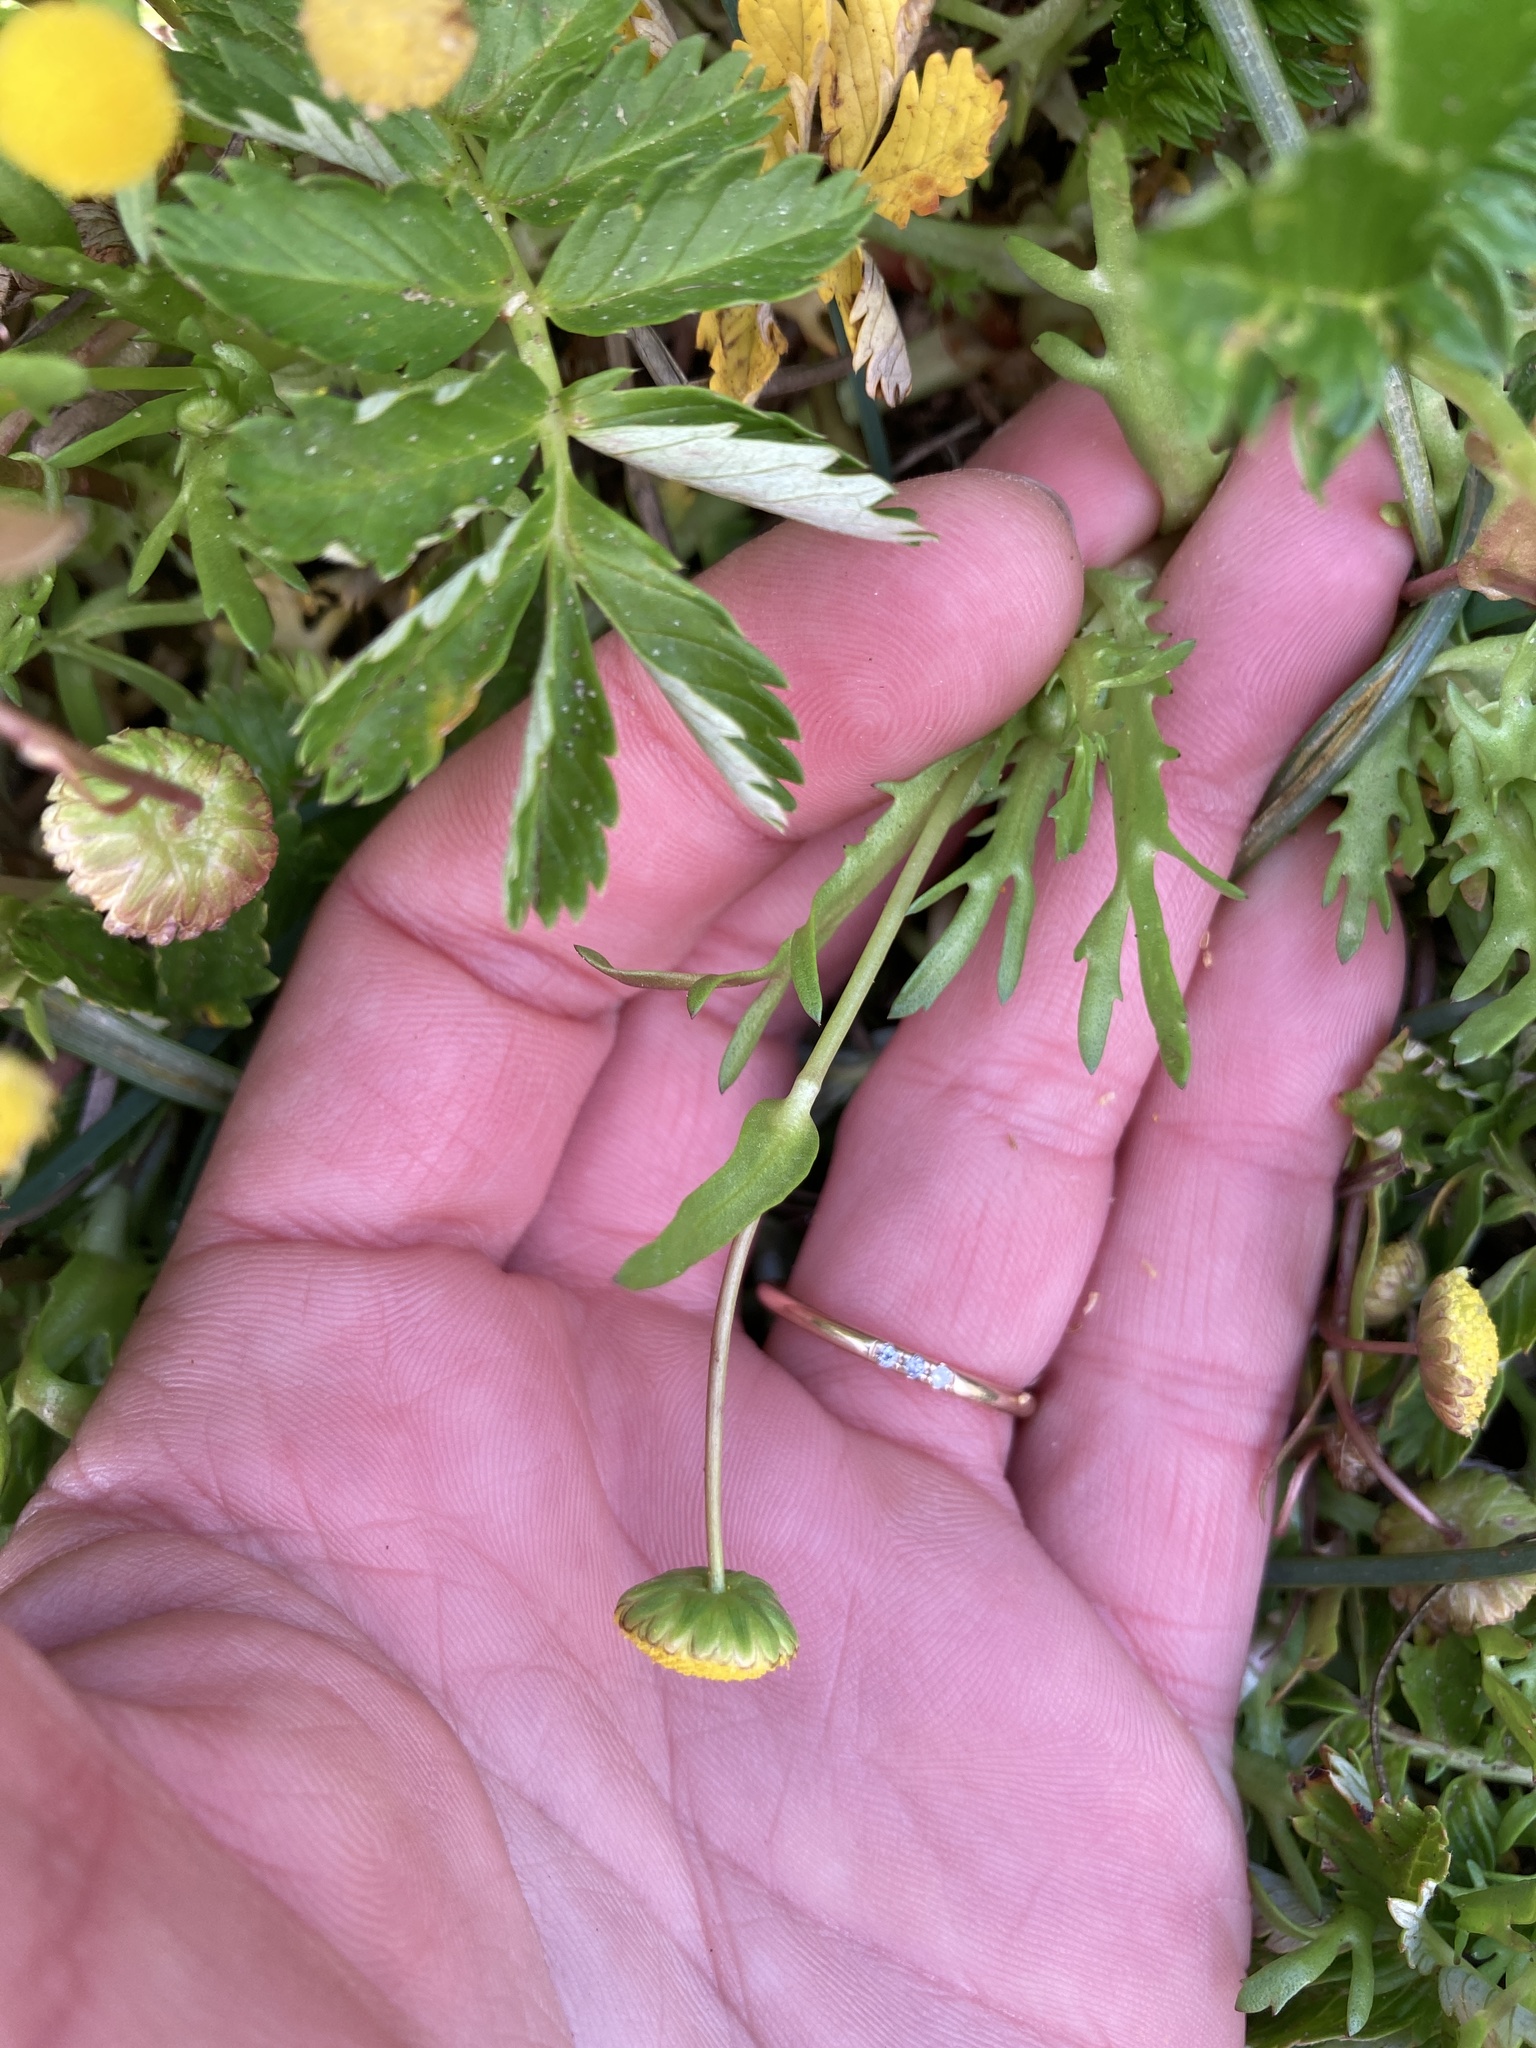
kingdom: Plantae
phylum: Tracheophyta
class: Magnoliopsida
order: Asterales
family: Asteraceae
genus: Cotula
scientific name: Cotula coronopifolia
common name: Buttonweed
